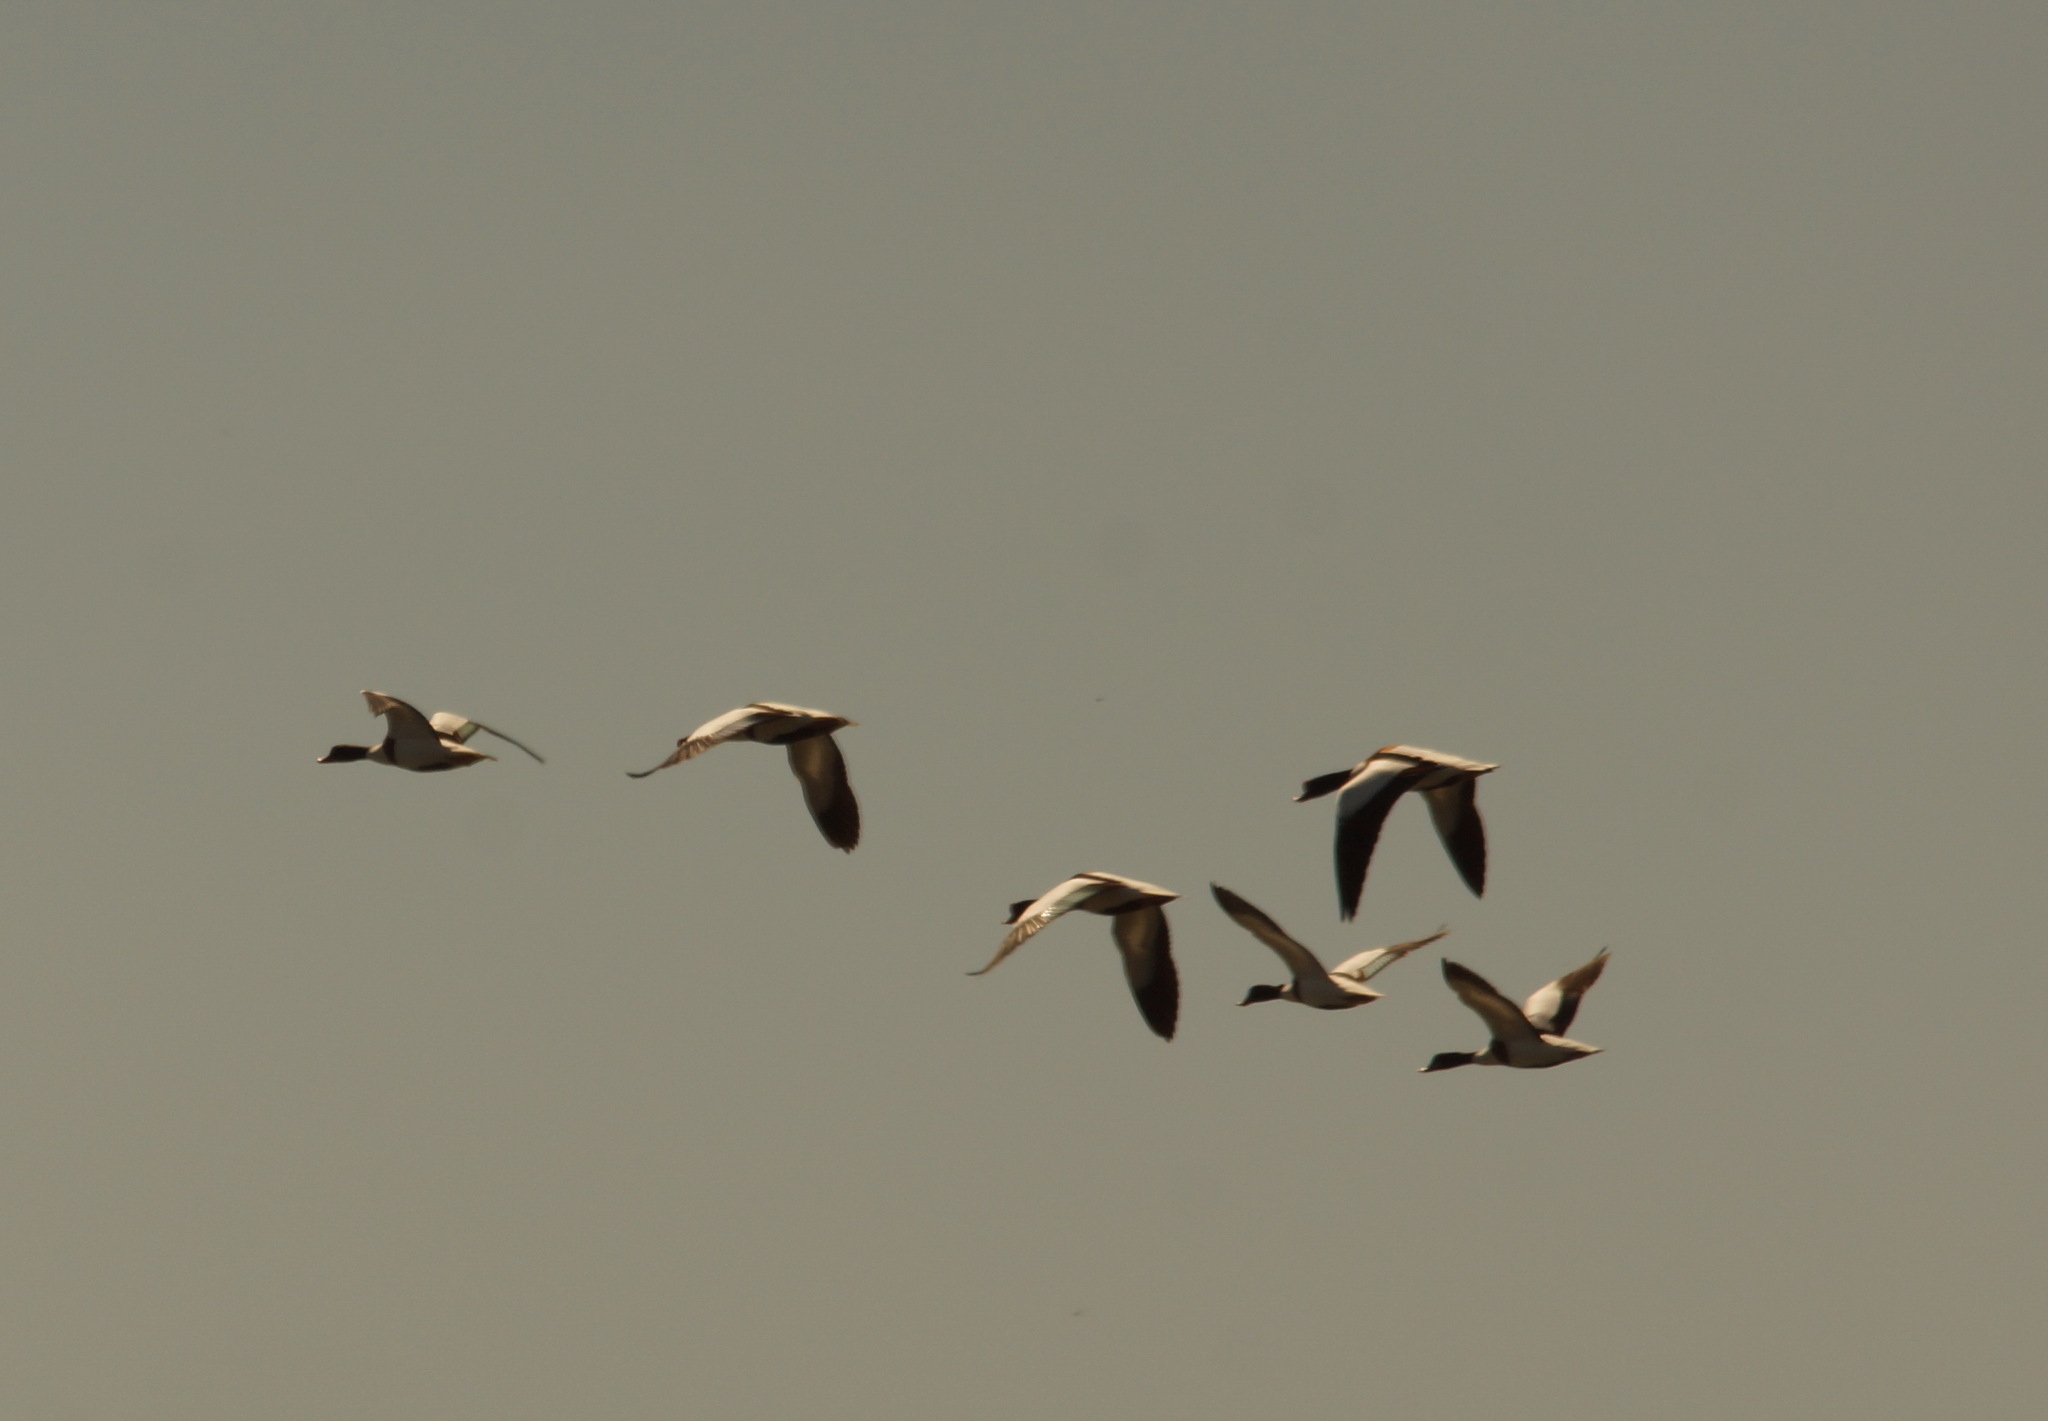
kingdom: Animalia
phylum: Chordata
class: Aves
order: Anseriformes
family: Anatidae
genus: Tadorna
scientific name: Tadorna tadorna
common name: Common shelduck
